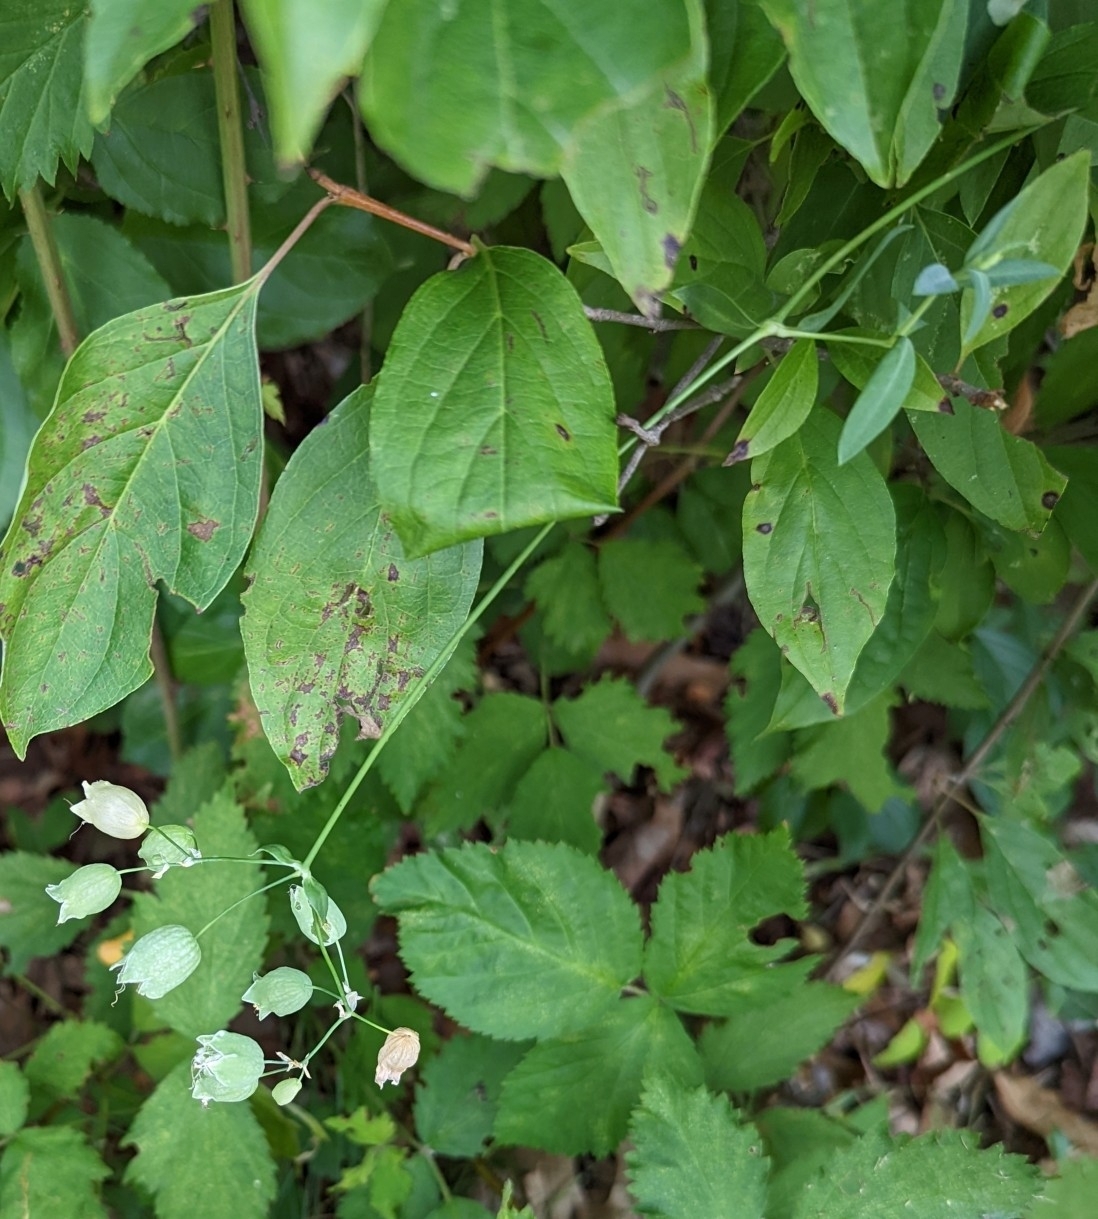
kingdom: Plantae
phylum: Tracheophyta
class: Magnoliopsida
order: Caryophyllales
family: Caryophyllaceae
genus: Silene
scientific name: Silene vulgaris
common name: Bladder campion
